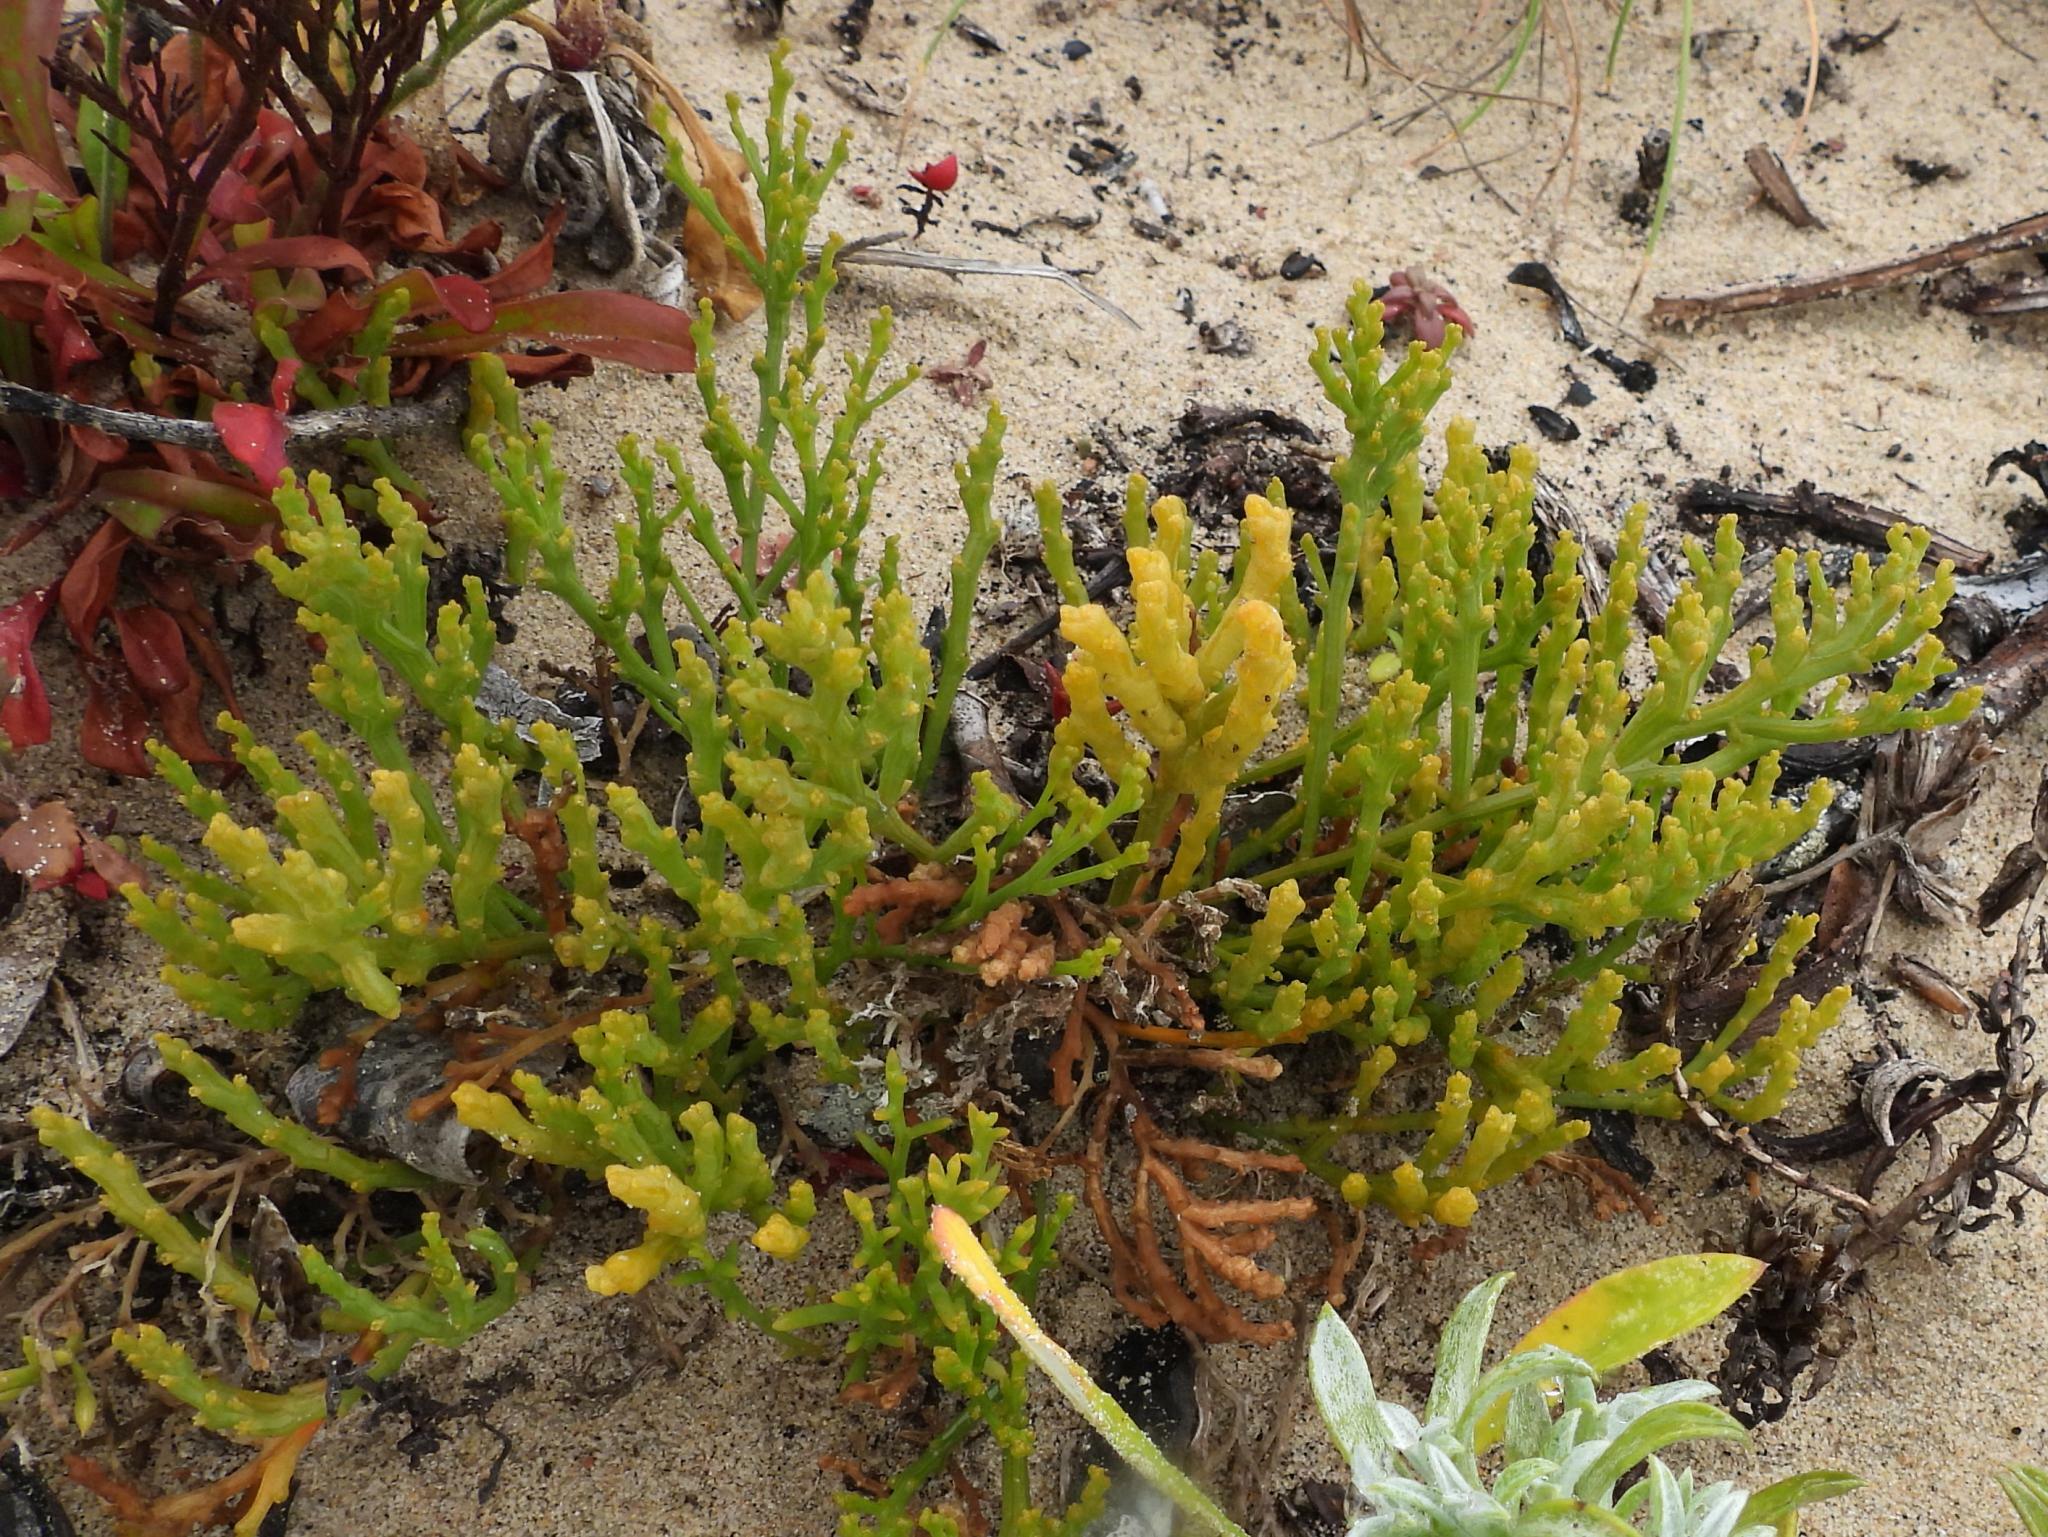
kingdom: Plantae
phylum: Tracheophyta
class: Magnoliopsida
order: Santalales
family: Thesiaceae
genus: Thesium
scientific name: Thesium fragile
